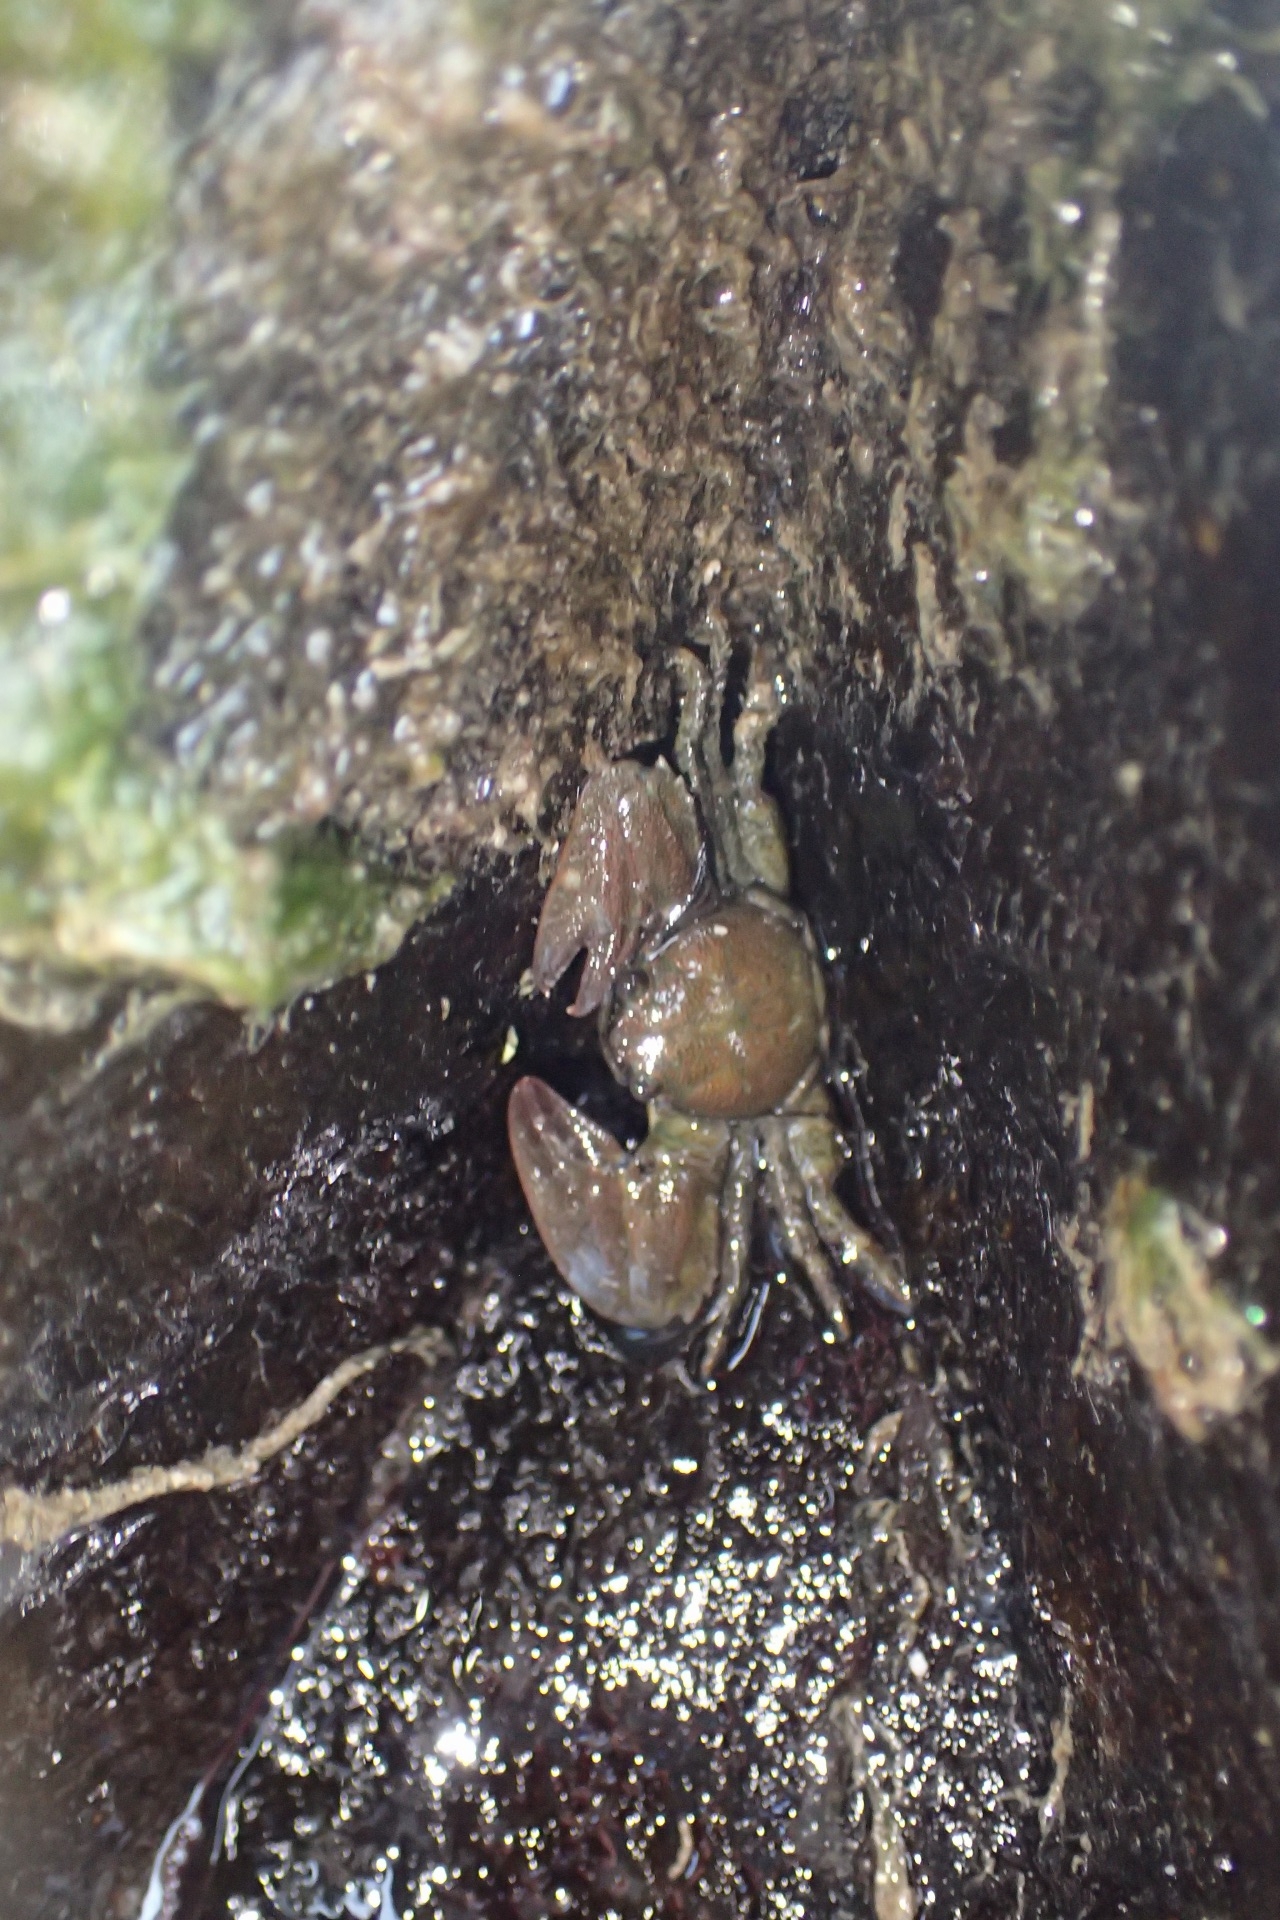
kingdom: Animalia
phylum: Arthropoda
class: Malacostraca
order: Decapoda
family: Porcellanidae
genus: Petrolisthes
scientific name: Petrolisthes elongatus
